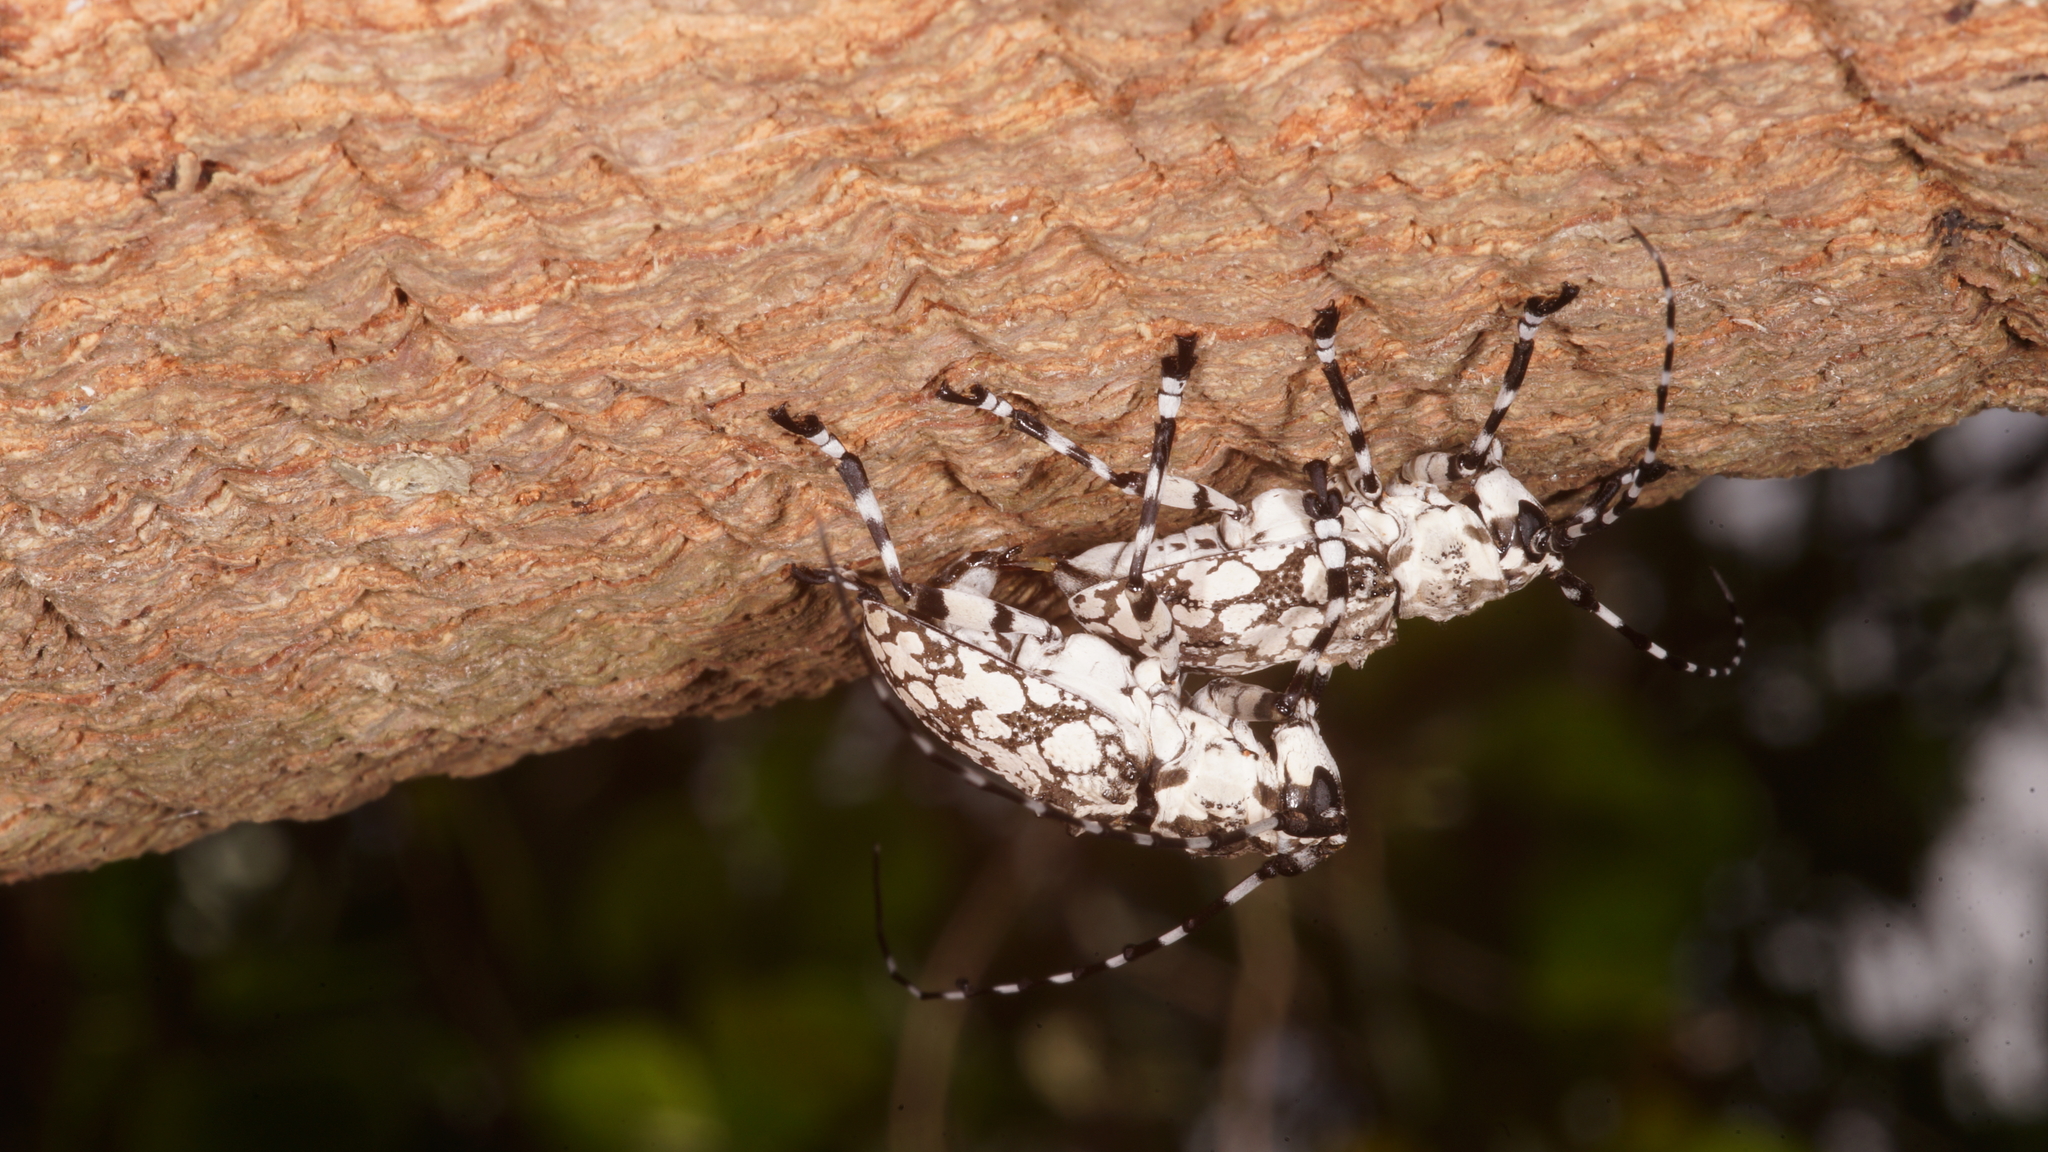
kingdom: Animalia
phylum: Arthropoda
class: Insecta
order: Coleoptera
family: Cerambycidae
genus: Palimna
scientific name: Palimna annulata
